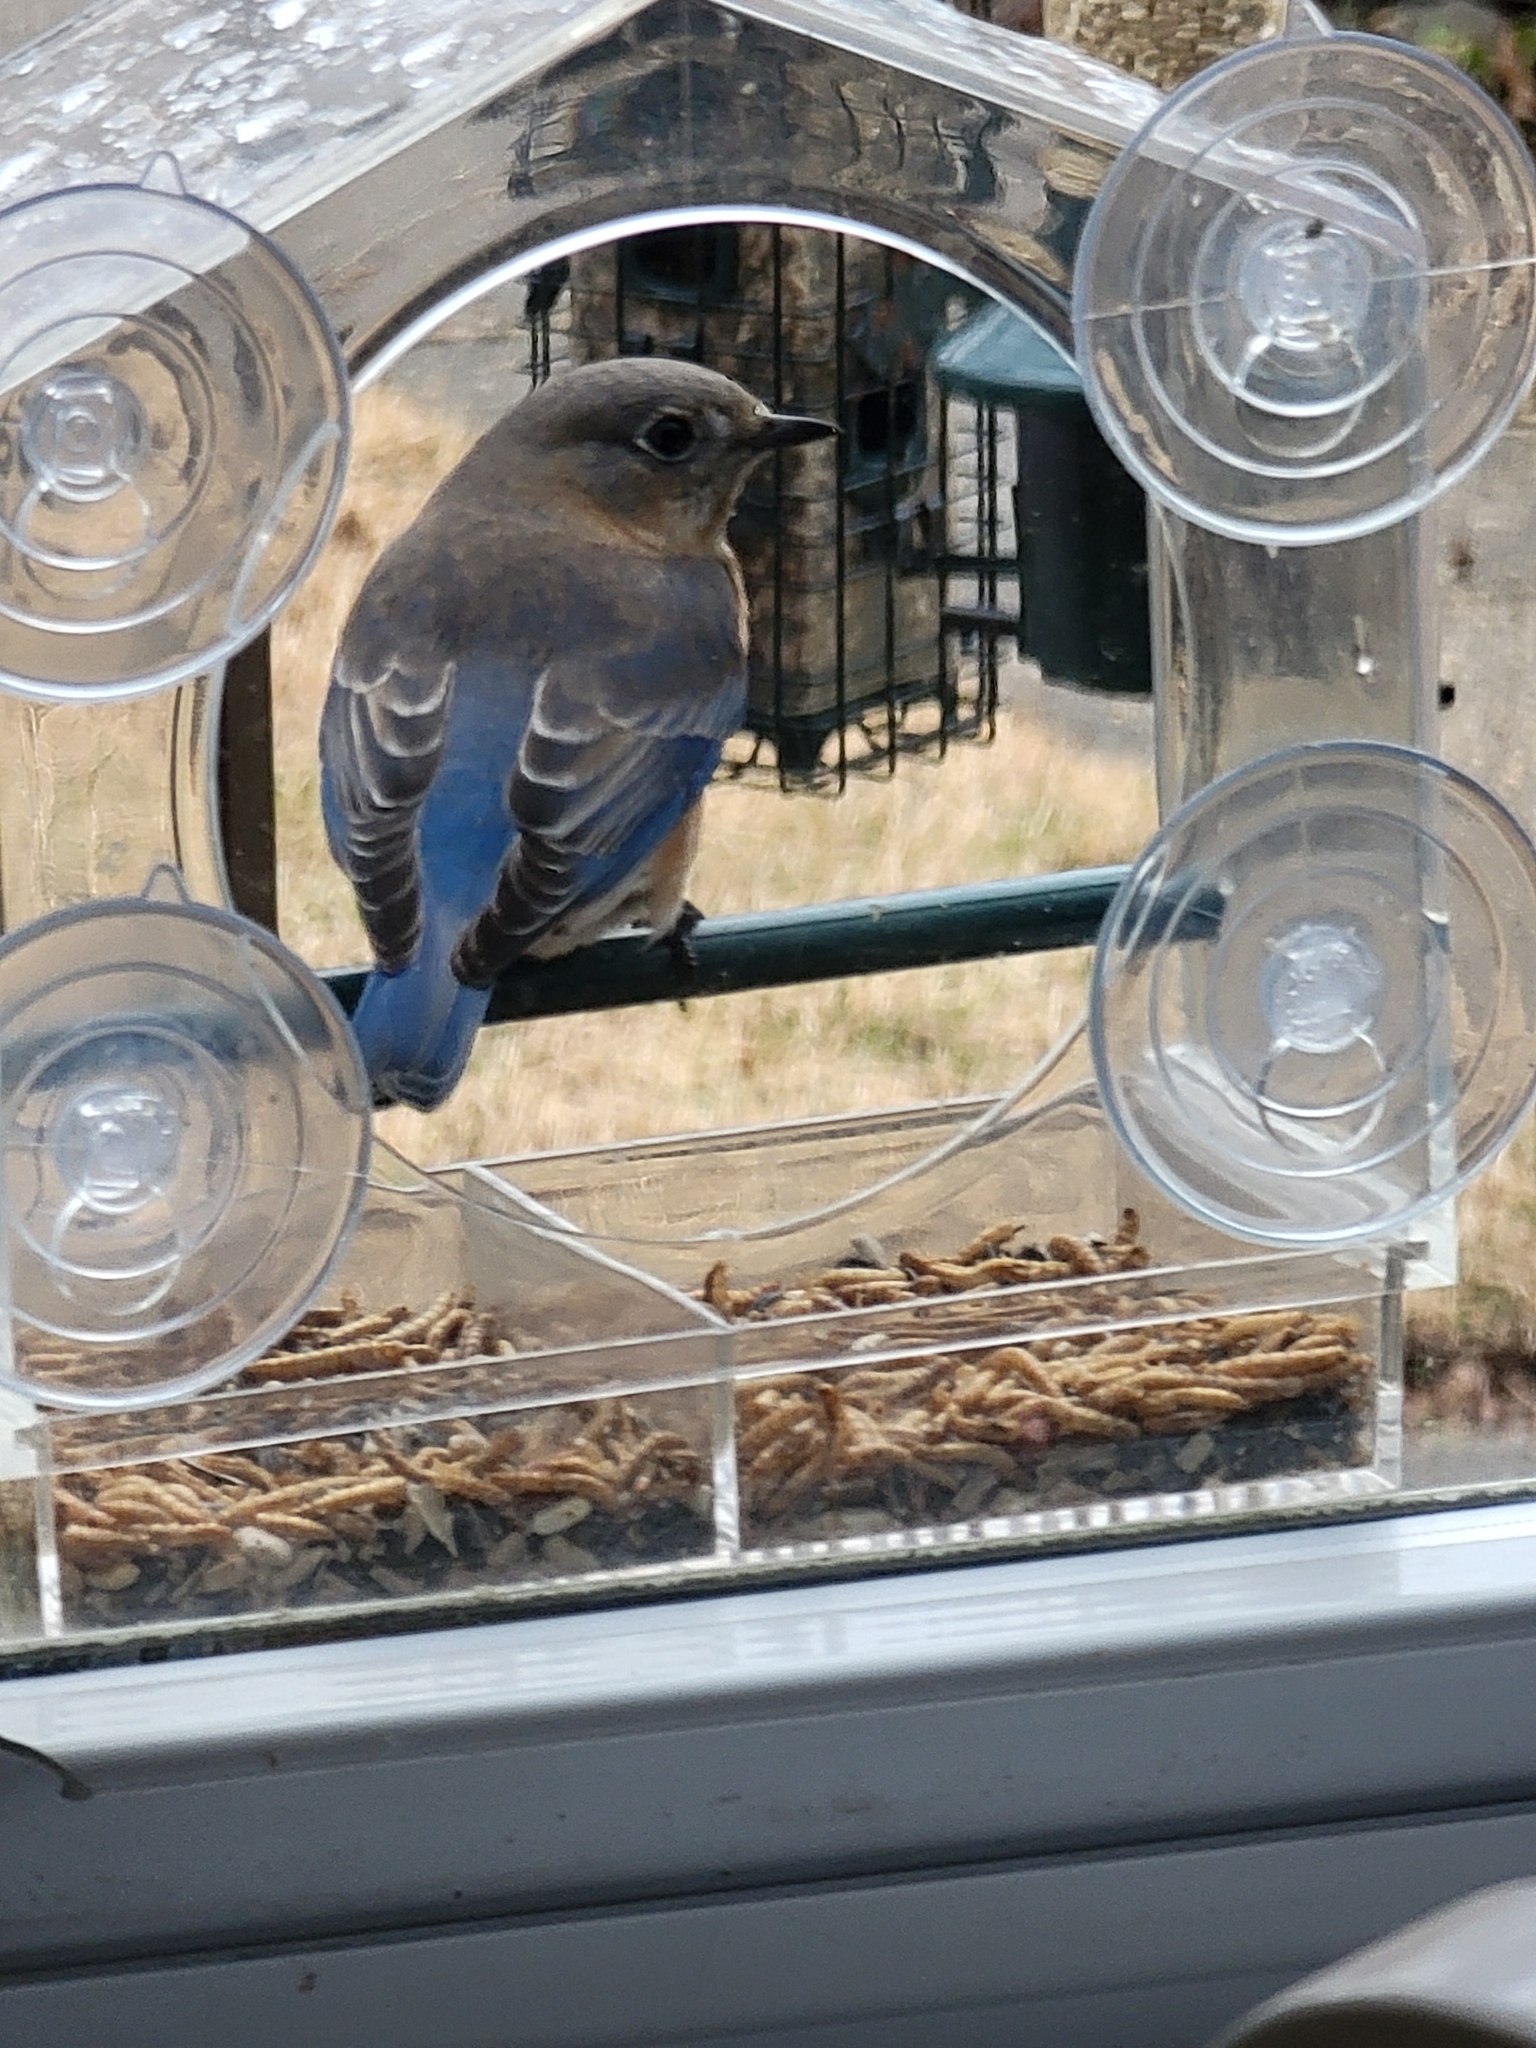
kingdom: Animalia
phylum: Chordata
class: Aves
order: Passeriformes
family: Turdidae
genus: Sialia
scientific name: Sialia sialis
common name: Eastern bluebird
